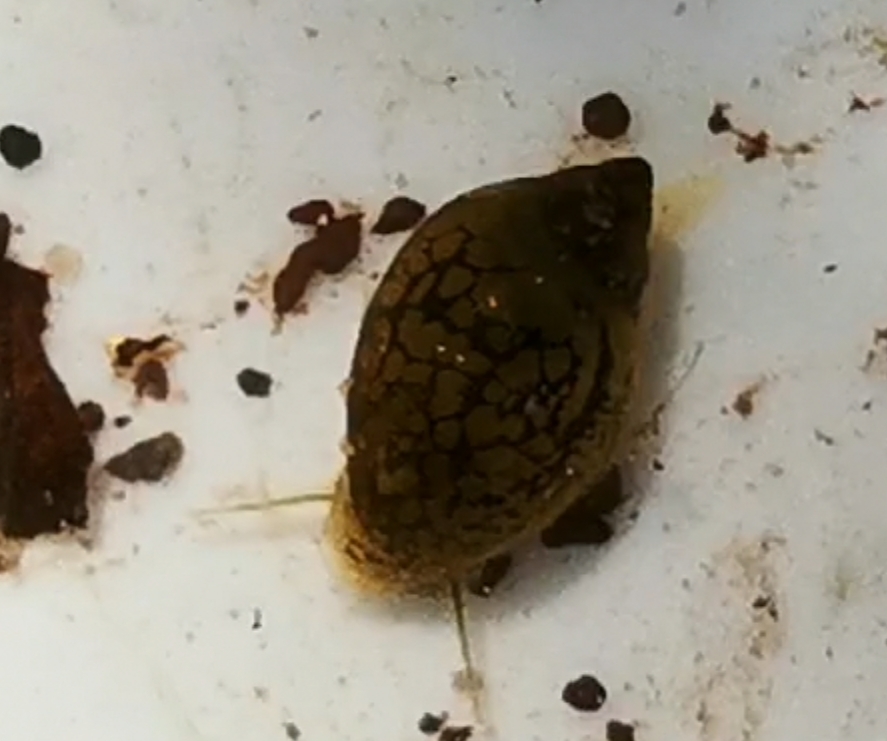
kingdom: Animalia
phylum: Mollusca
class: Gastropoda
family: Physidae
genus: Physella
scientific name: Physella acuta
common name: European physa
